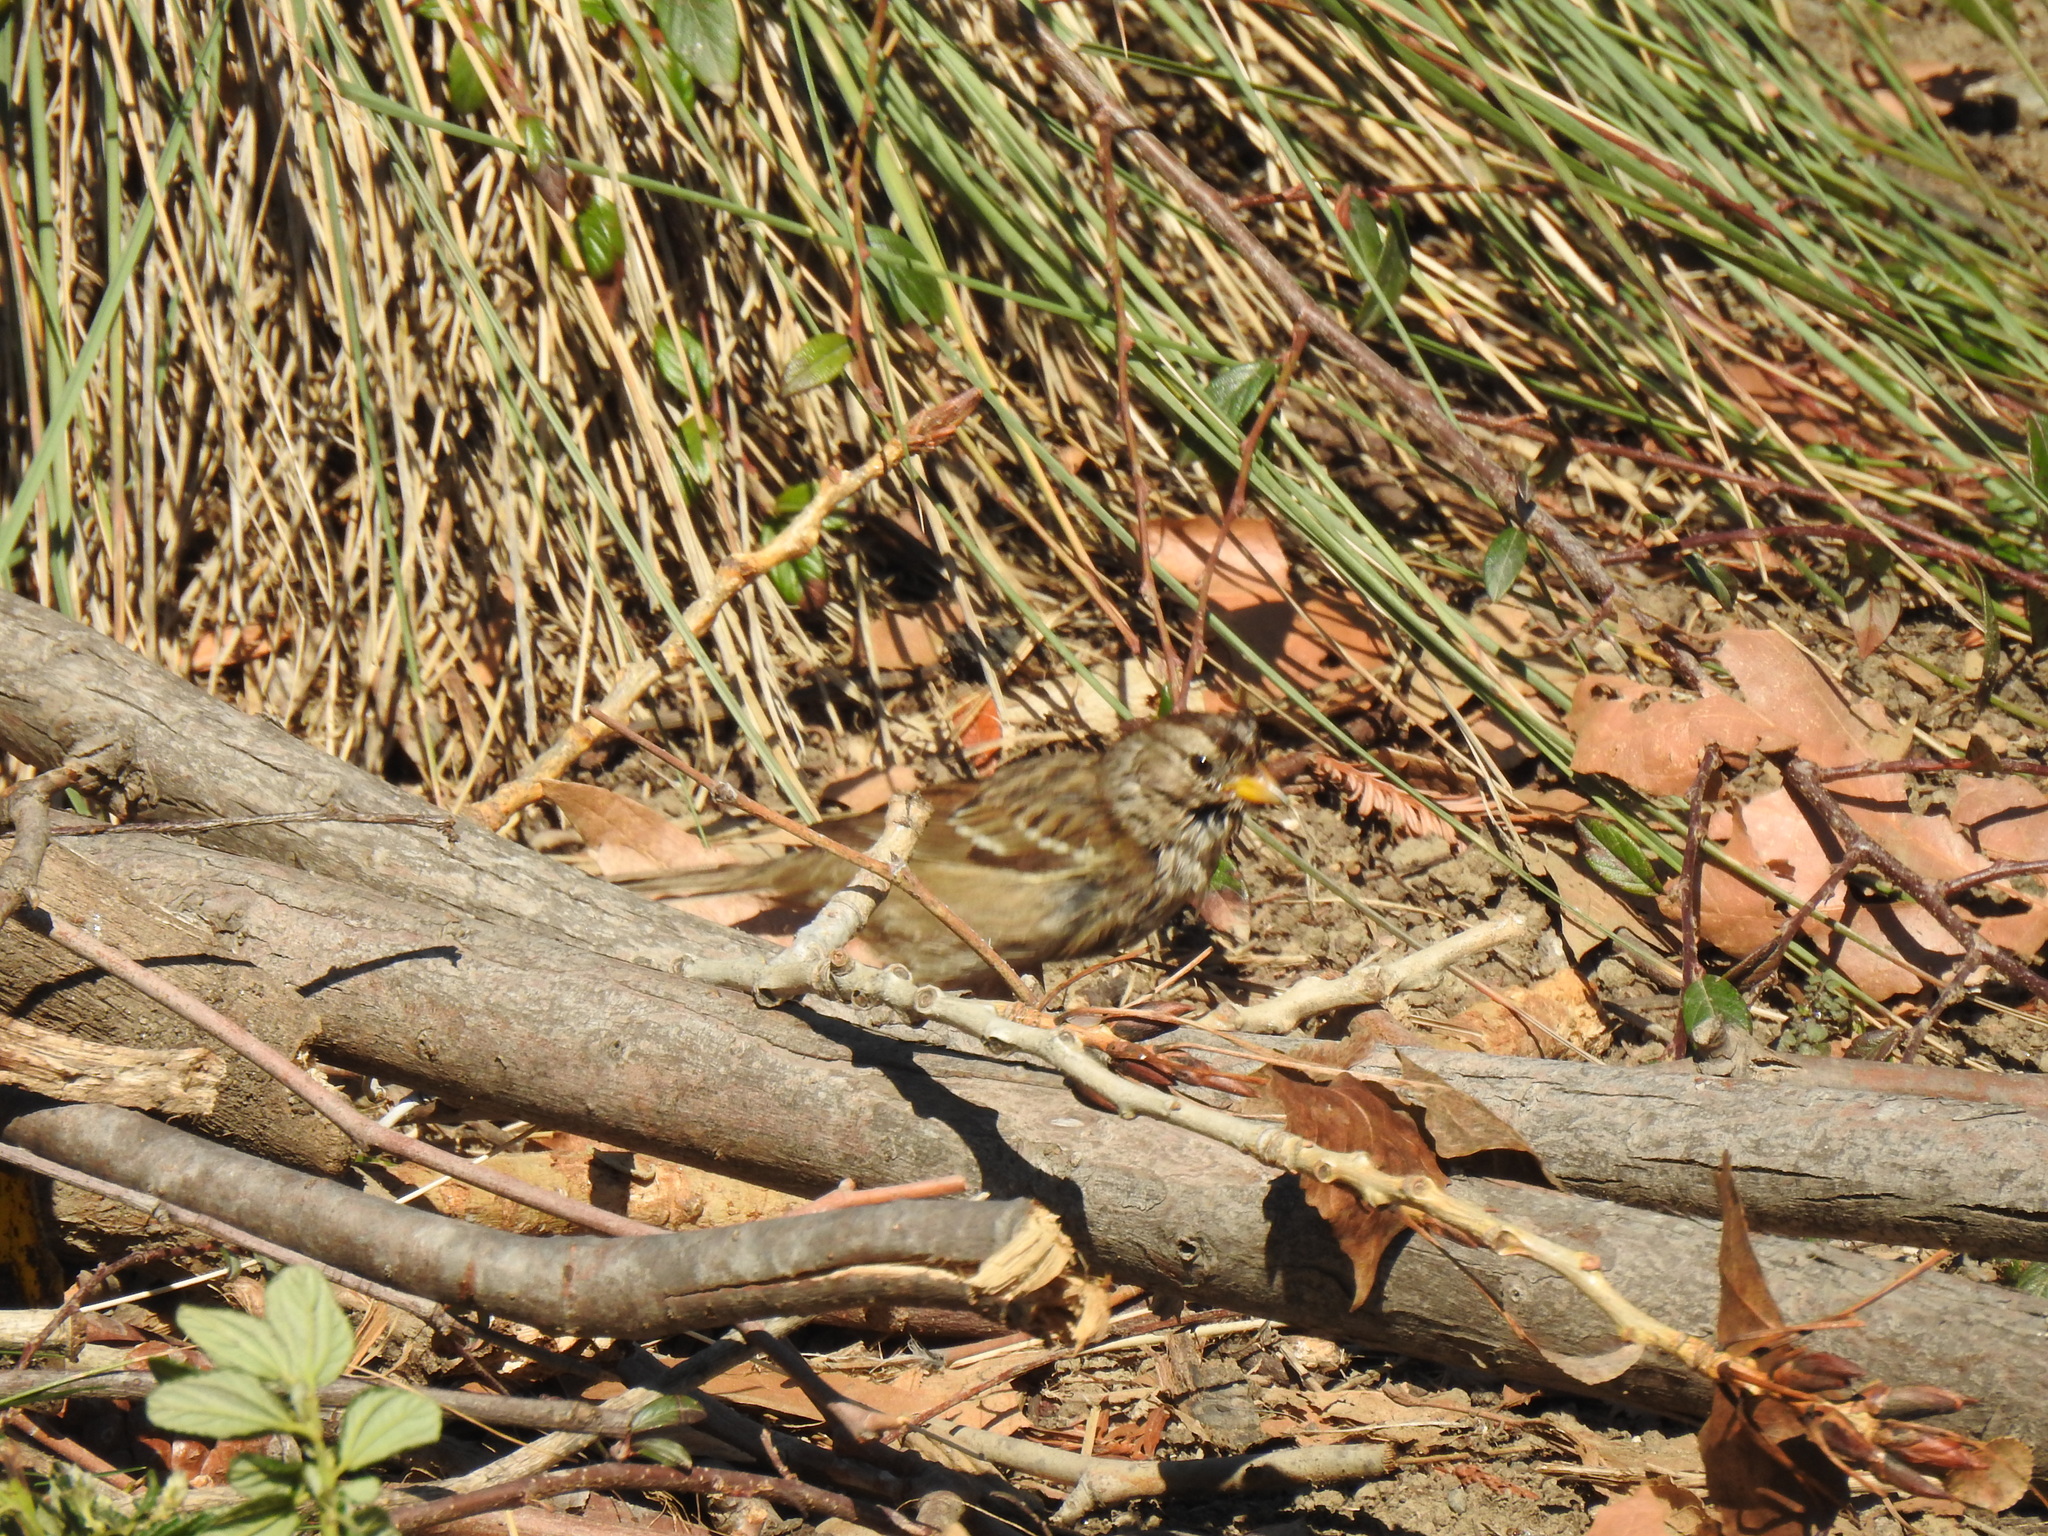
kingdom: Animalia
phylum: Chordata
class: Aves
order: Passeriformes
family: Passerellidae
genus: Zonotrichia
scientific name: Zonotrichia leucophrys
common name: White-crowned sparrow
